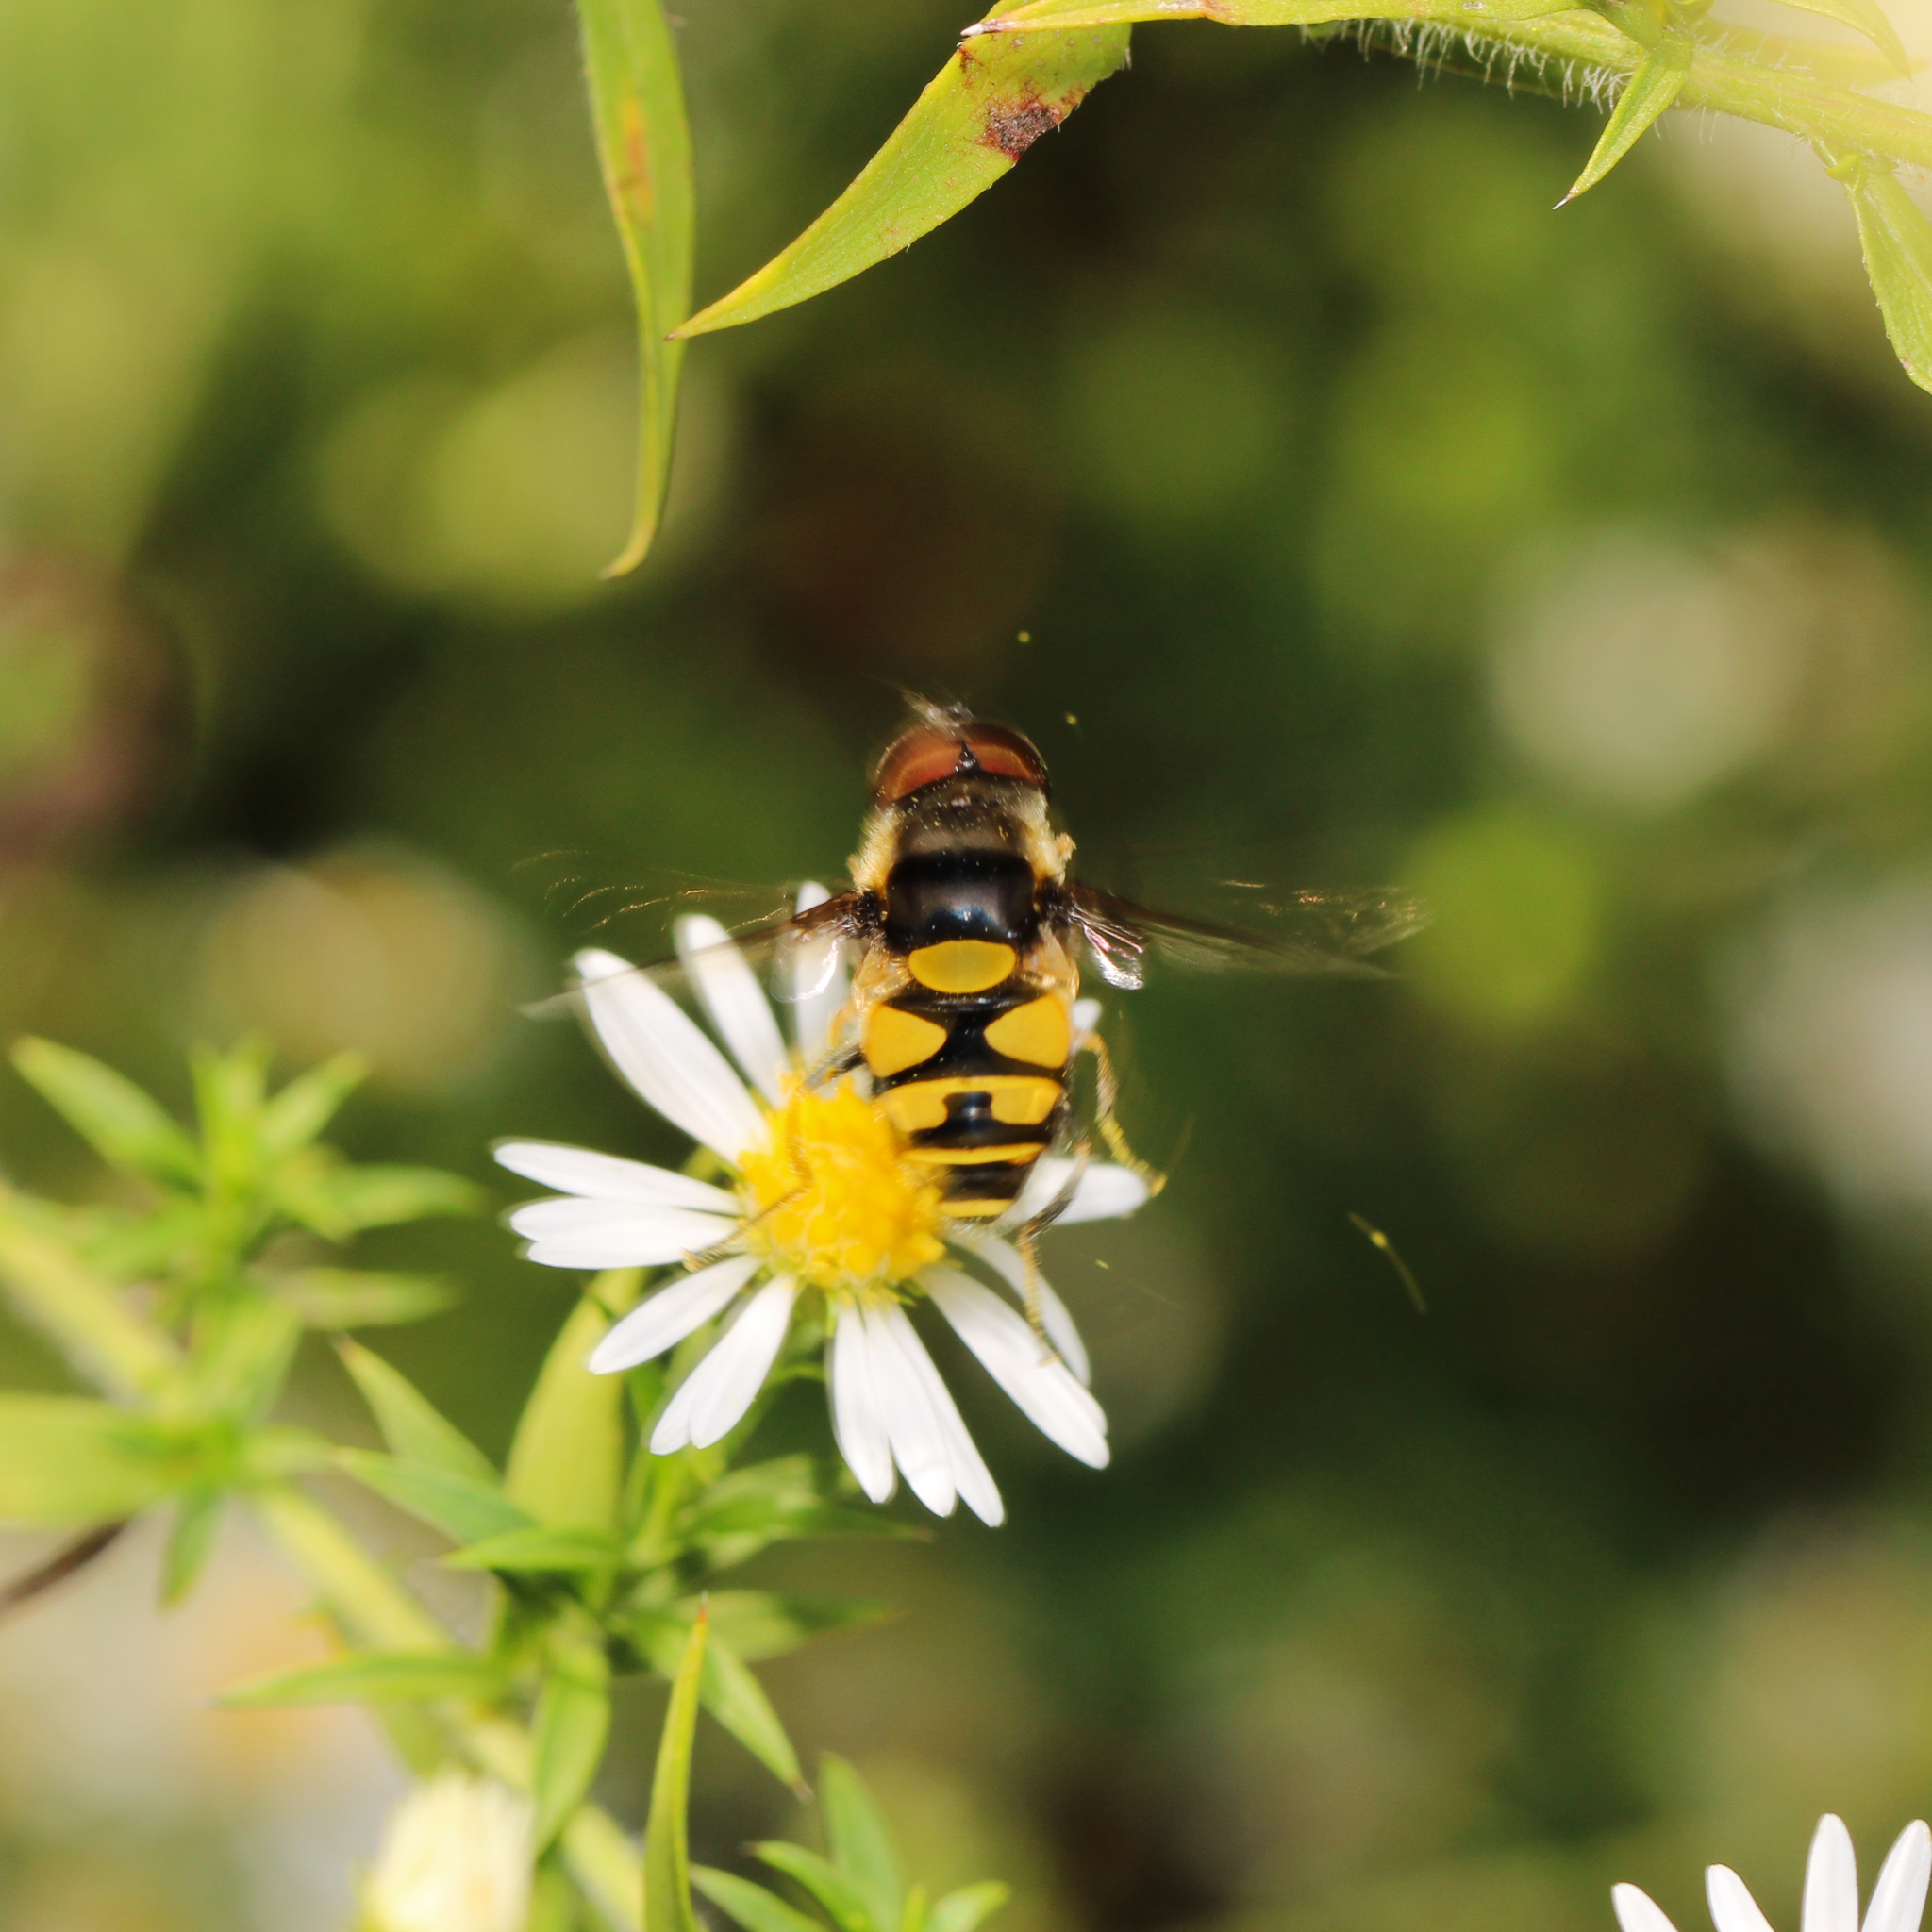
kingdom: Animalia
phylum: Arthropoda
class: Insecta
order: Diptera
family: Syrphidae
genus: Eristalis
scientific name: Eristalis transversa
